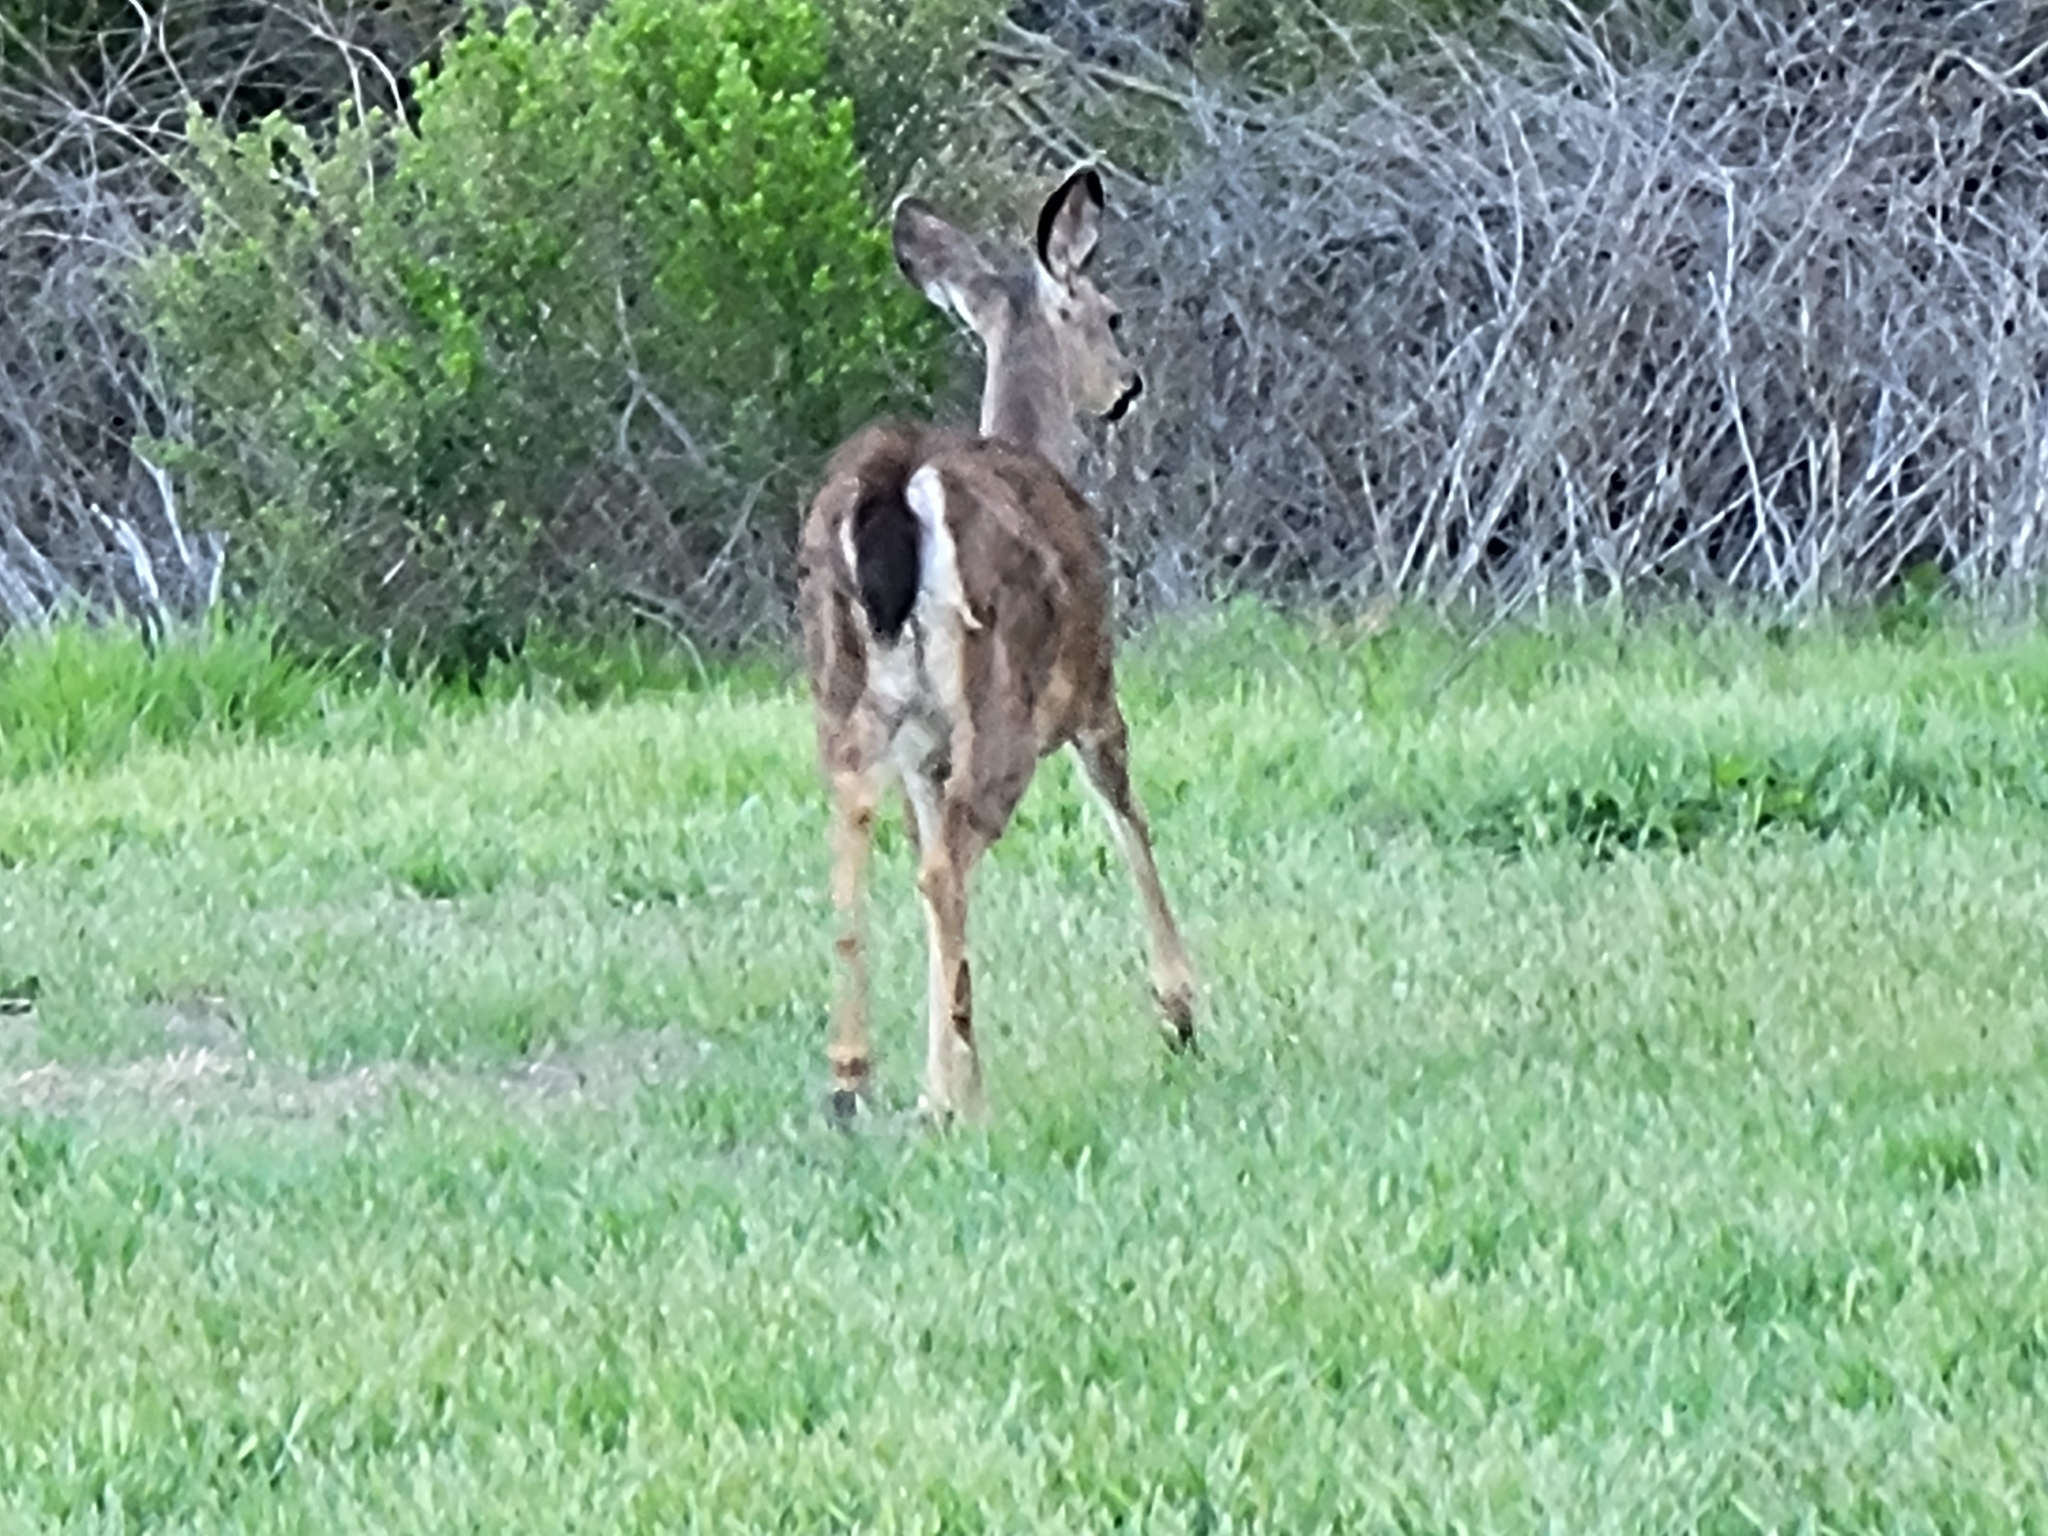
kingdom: Animalia
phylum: Chordata
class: Mammalia
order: Artiodactyla
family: Cervidae
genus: Odocoileus
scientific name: Odocoileus hemionus
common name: Mule deer
